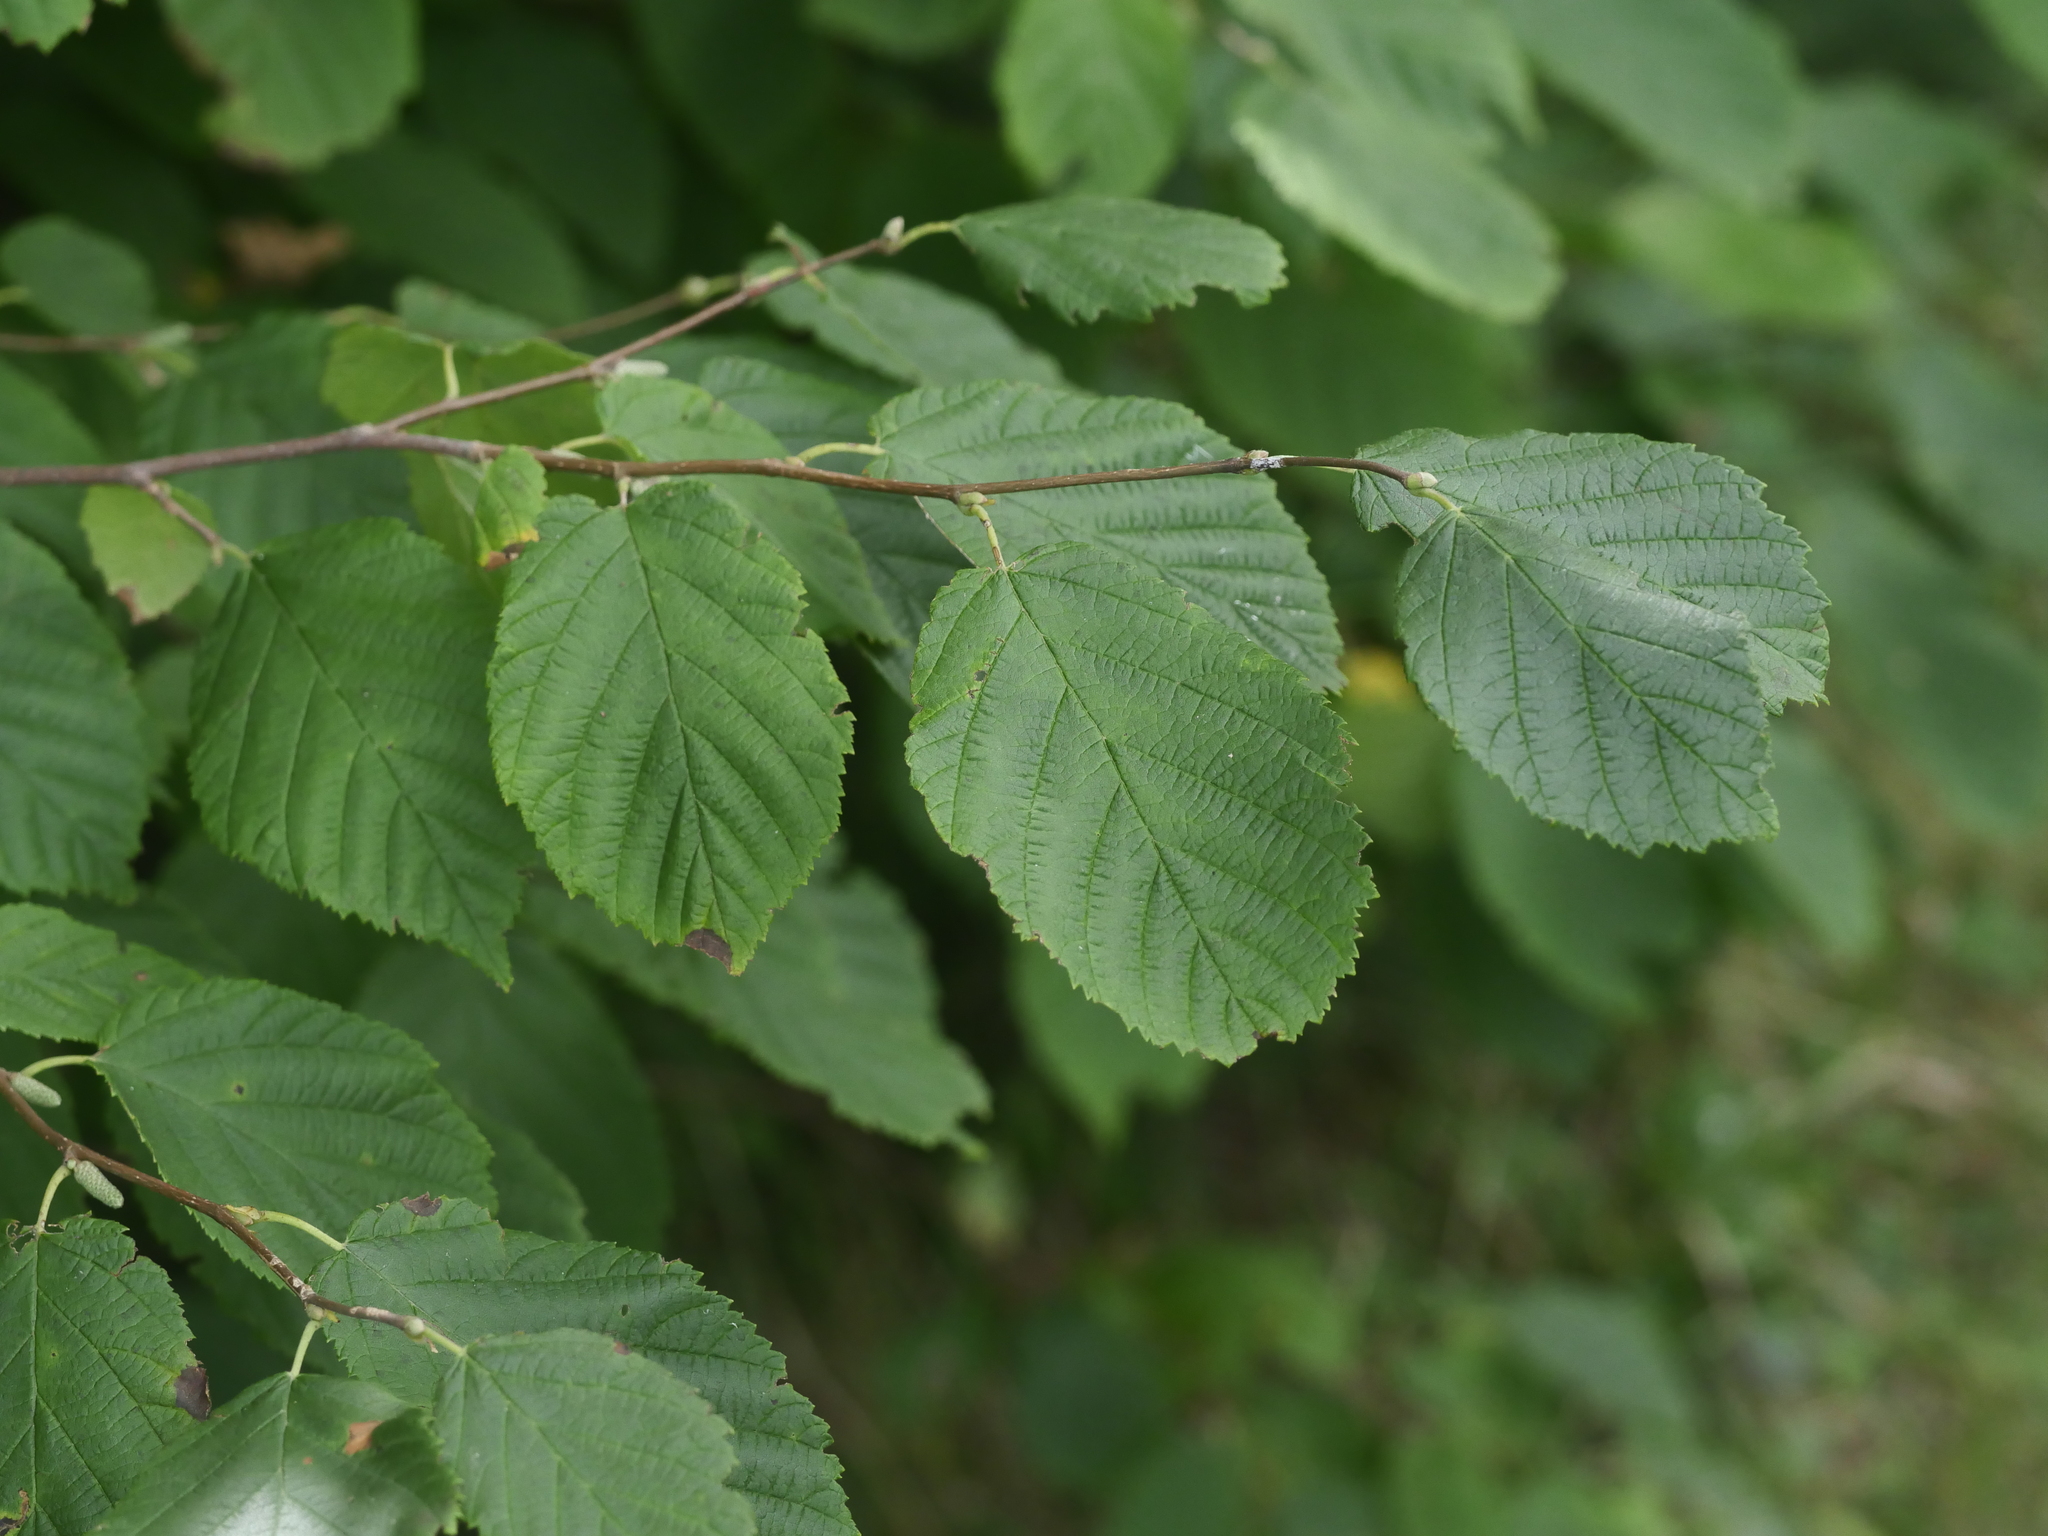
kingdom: Plantae
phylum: Tracheophyta
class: Magnoliopsida
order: Fagales
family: Betulaceae
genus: Corylus
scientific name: Corylus cornuta
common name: Beaked hazel
